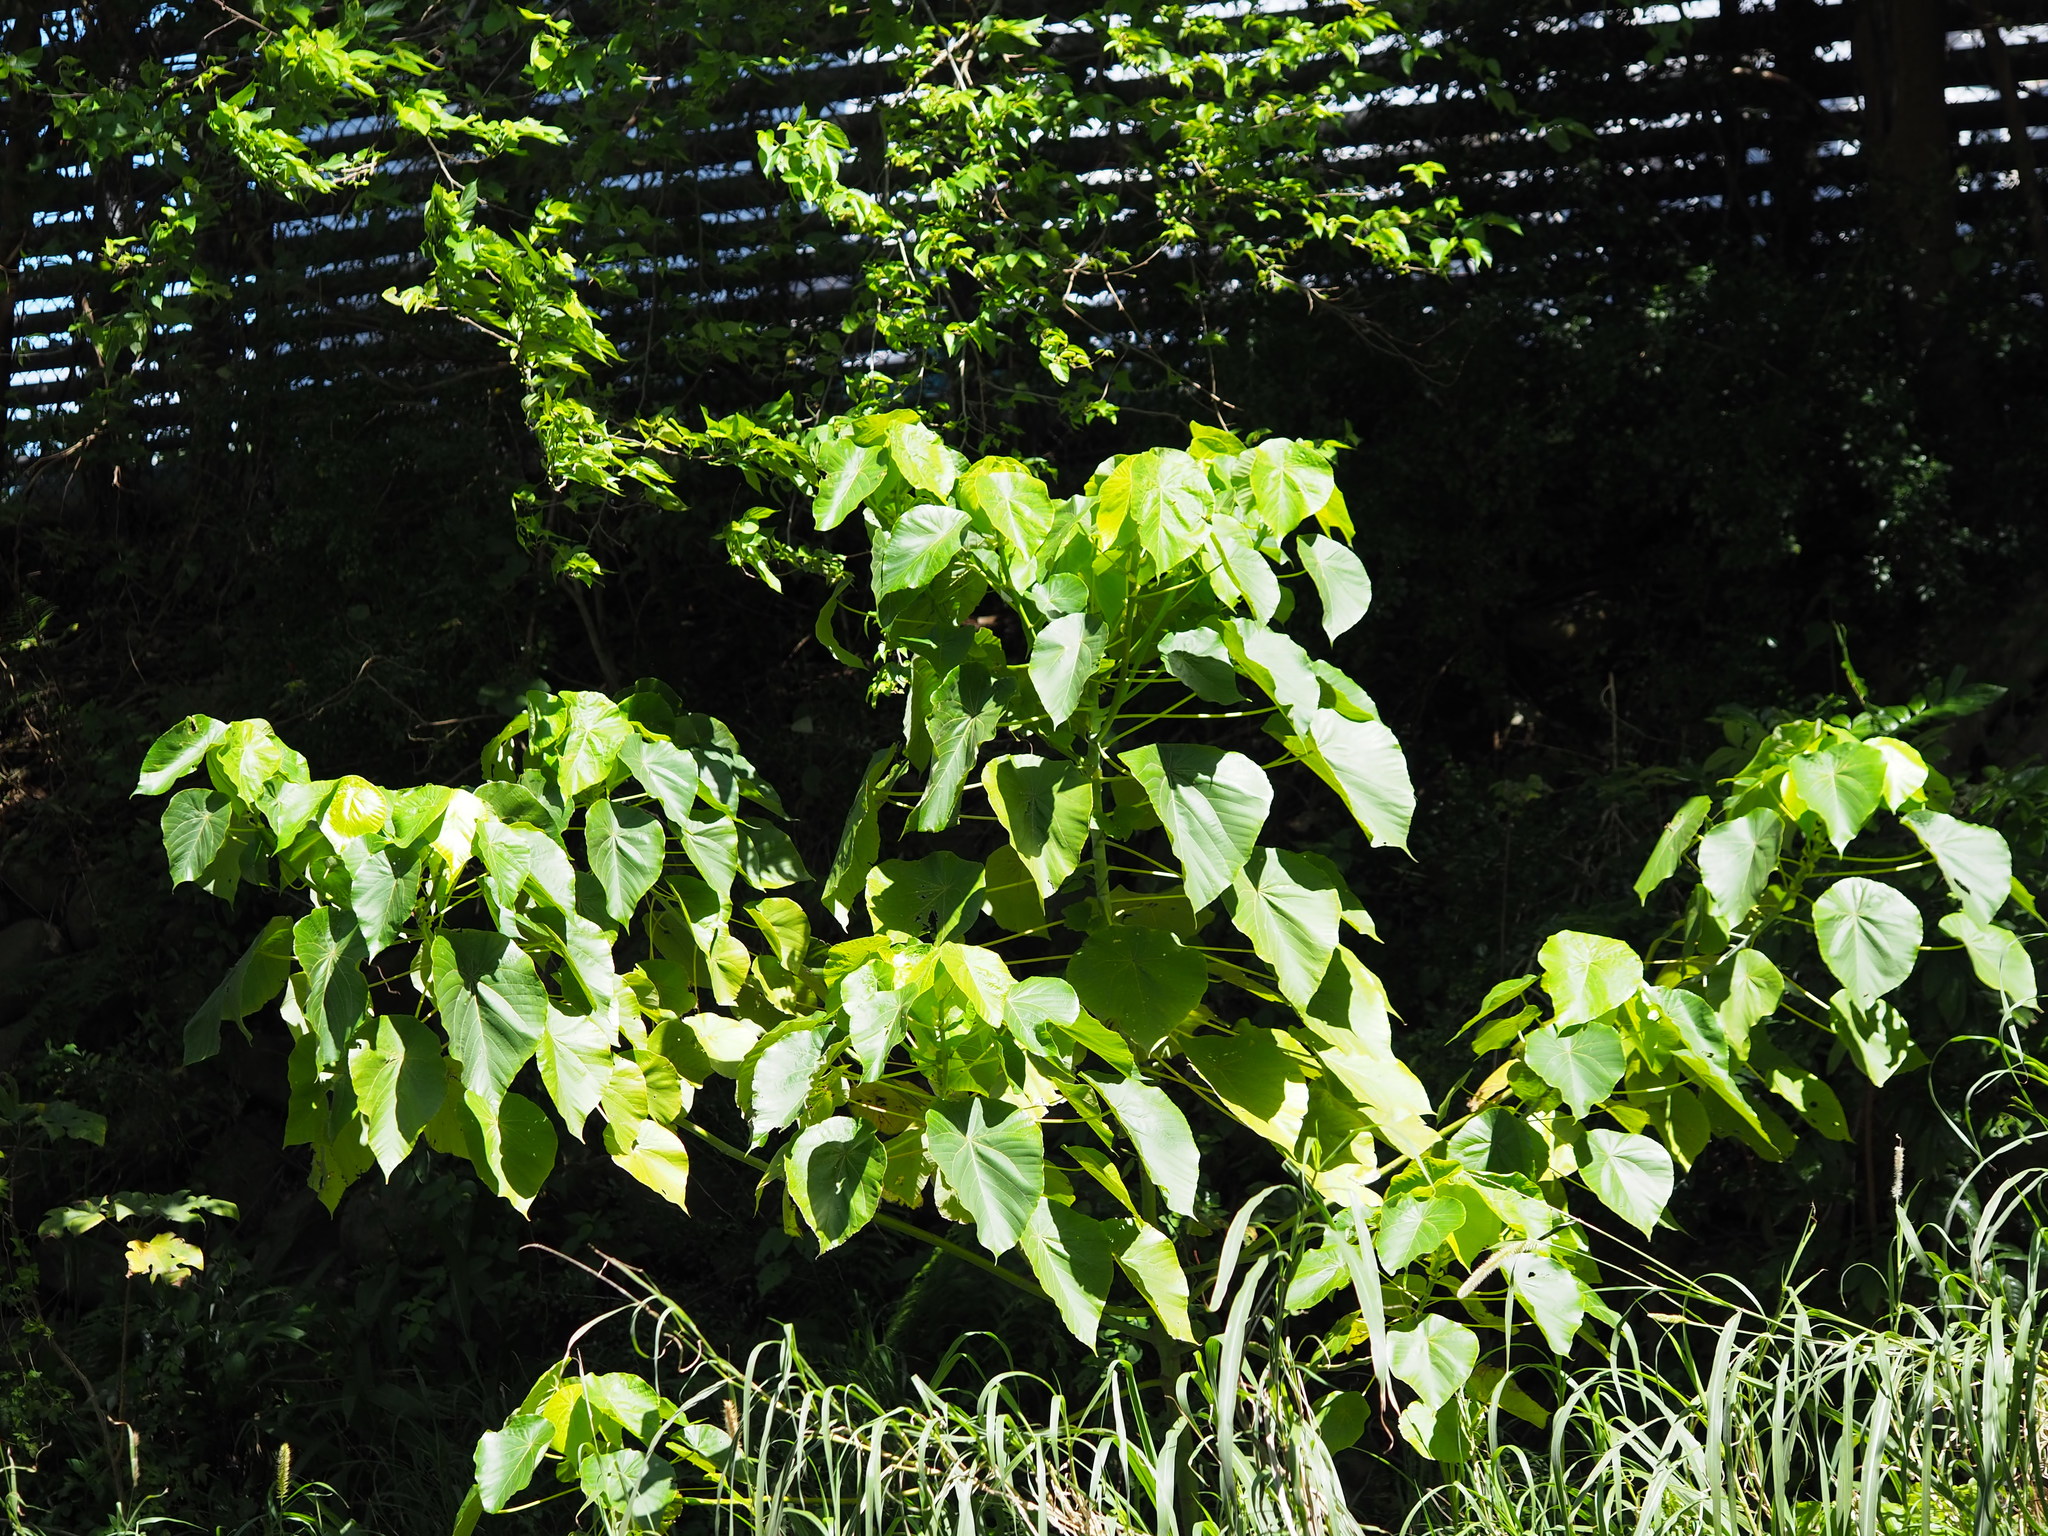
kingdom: Plantae
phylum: Tracheophyta
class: Magnoliopsida
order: Malpighiales
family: Euphorbiaceae
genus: Macaranga
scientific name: Macaranga tanarius
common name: Parasol leaf tree
